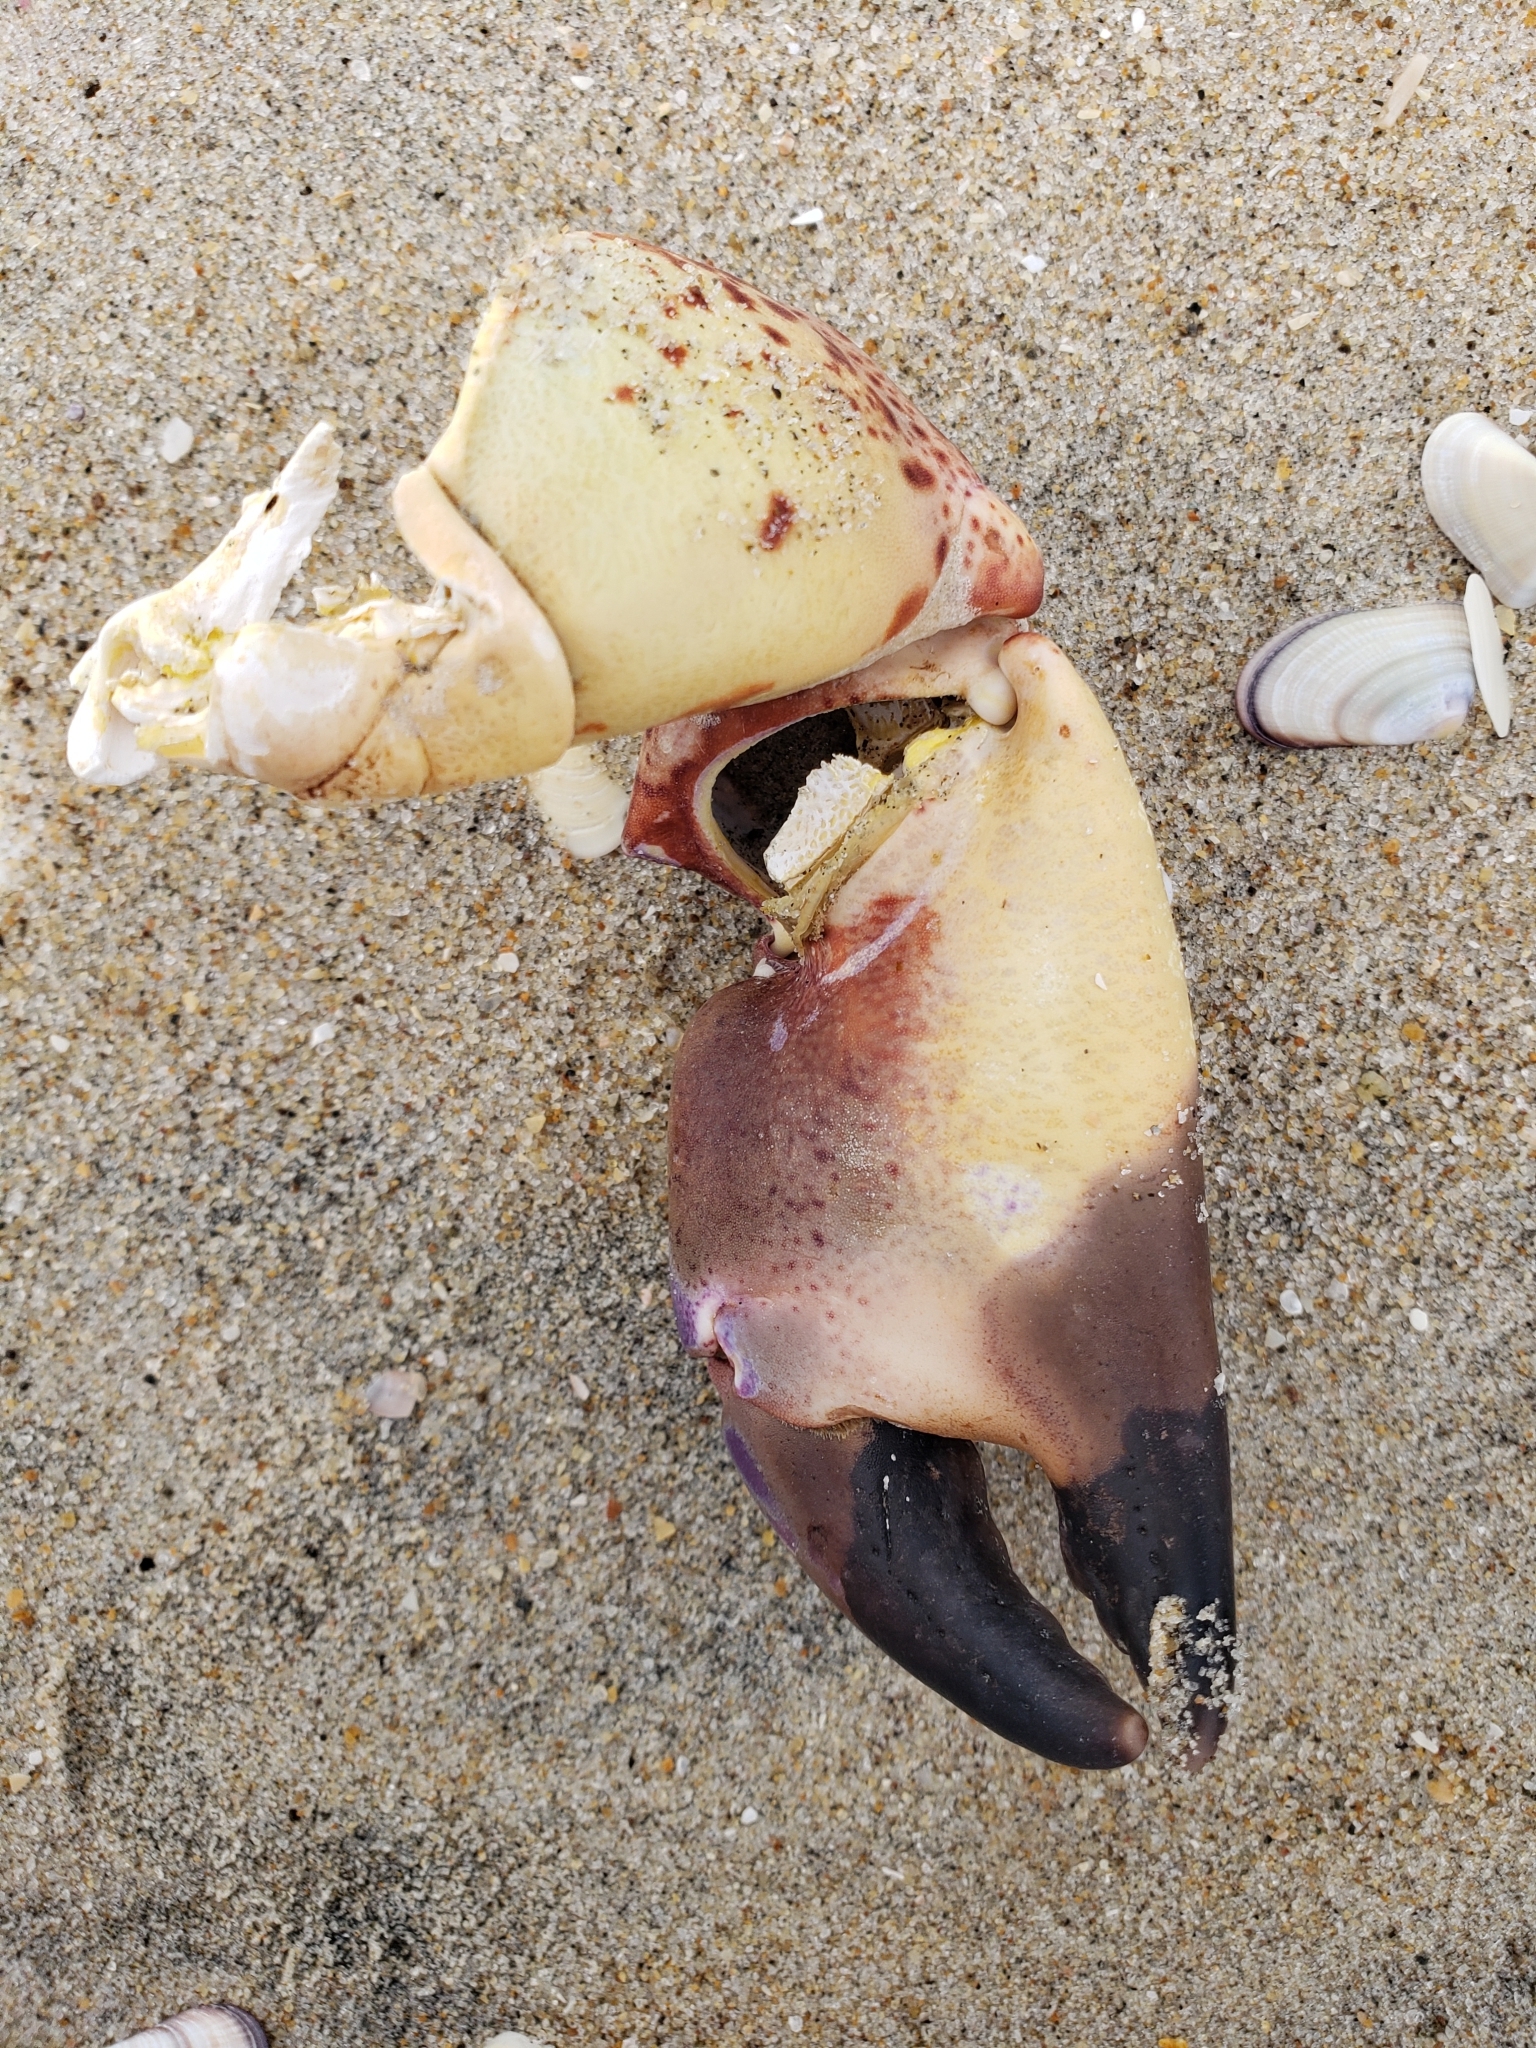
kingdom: Animalia
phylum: Arthropoda
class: Malacostraca
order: Decapoda
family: Cancridae
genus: Romaleon
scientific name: Romaleon antennarium
